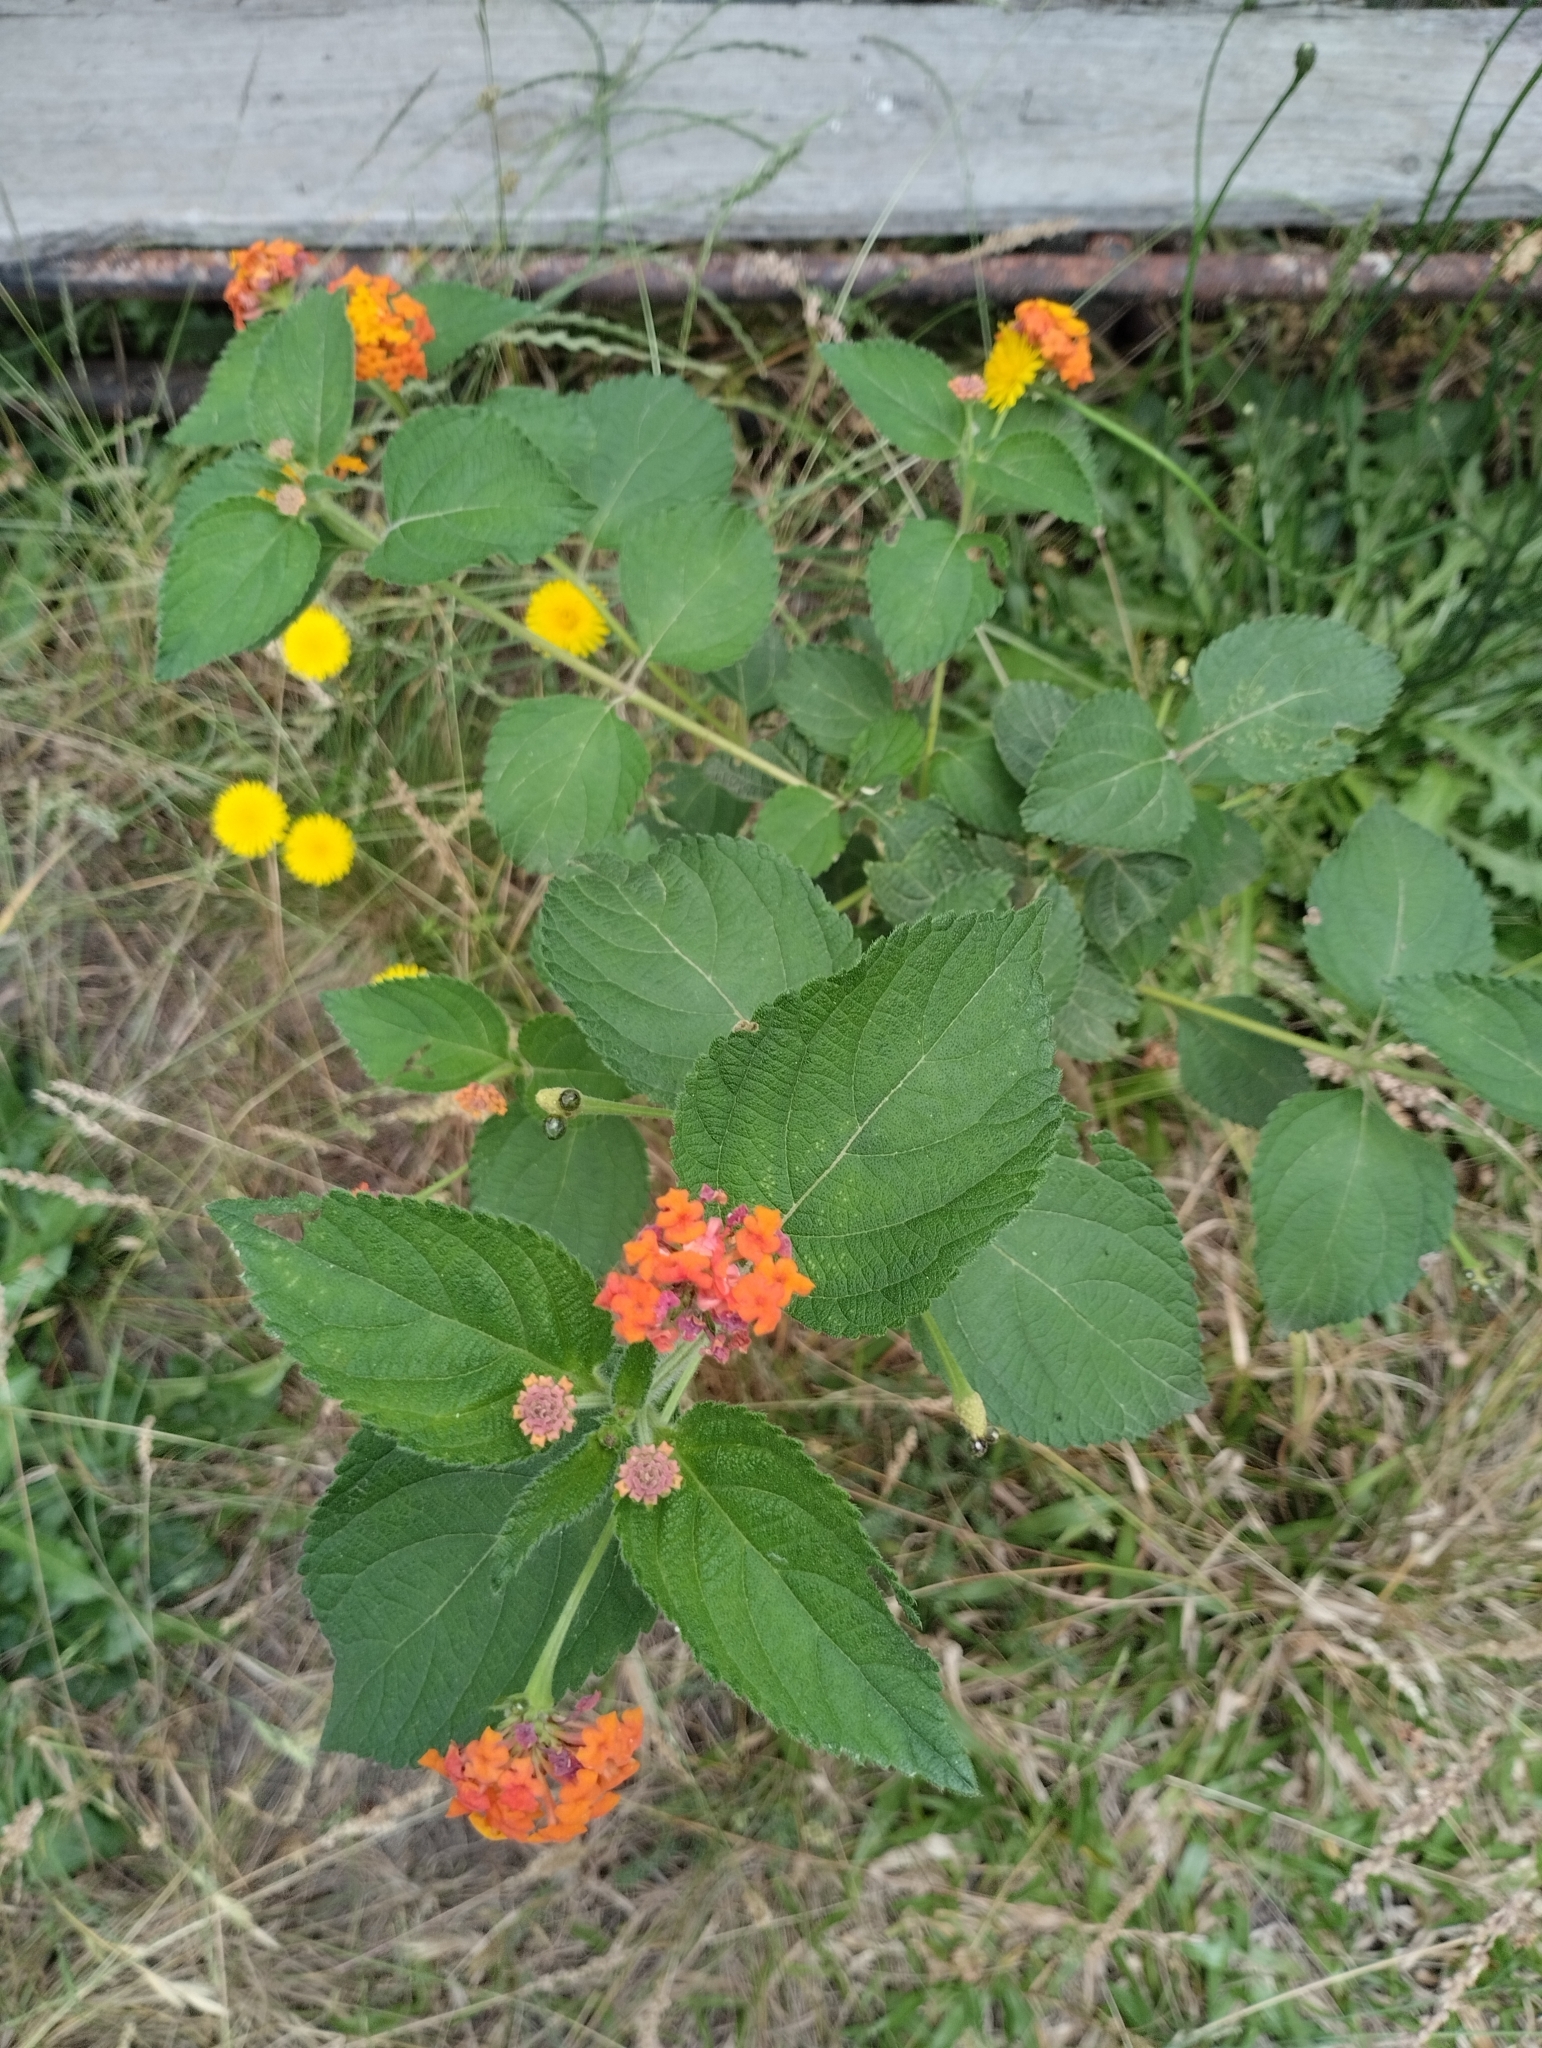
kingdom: Plantae
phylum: Tracheophyta
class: Magnoliopsida
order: Lamiales
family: Verbenaceae
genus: Lantana
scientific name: Lantana camara
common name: Lantana
